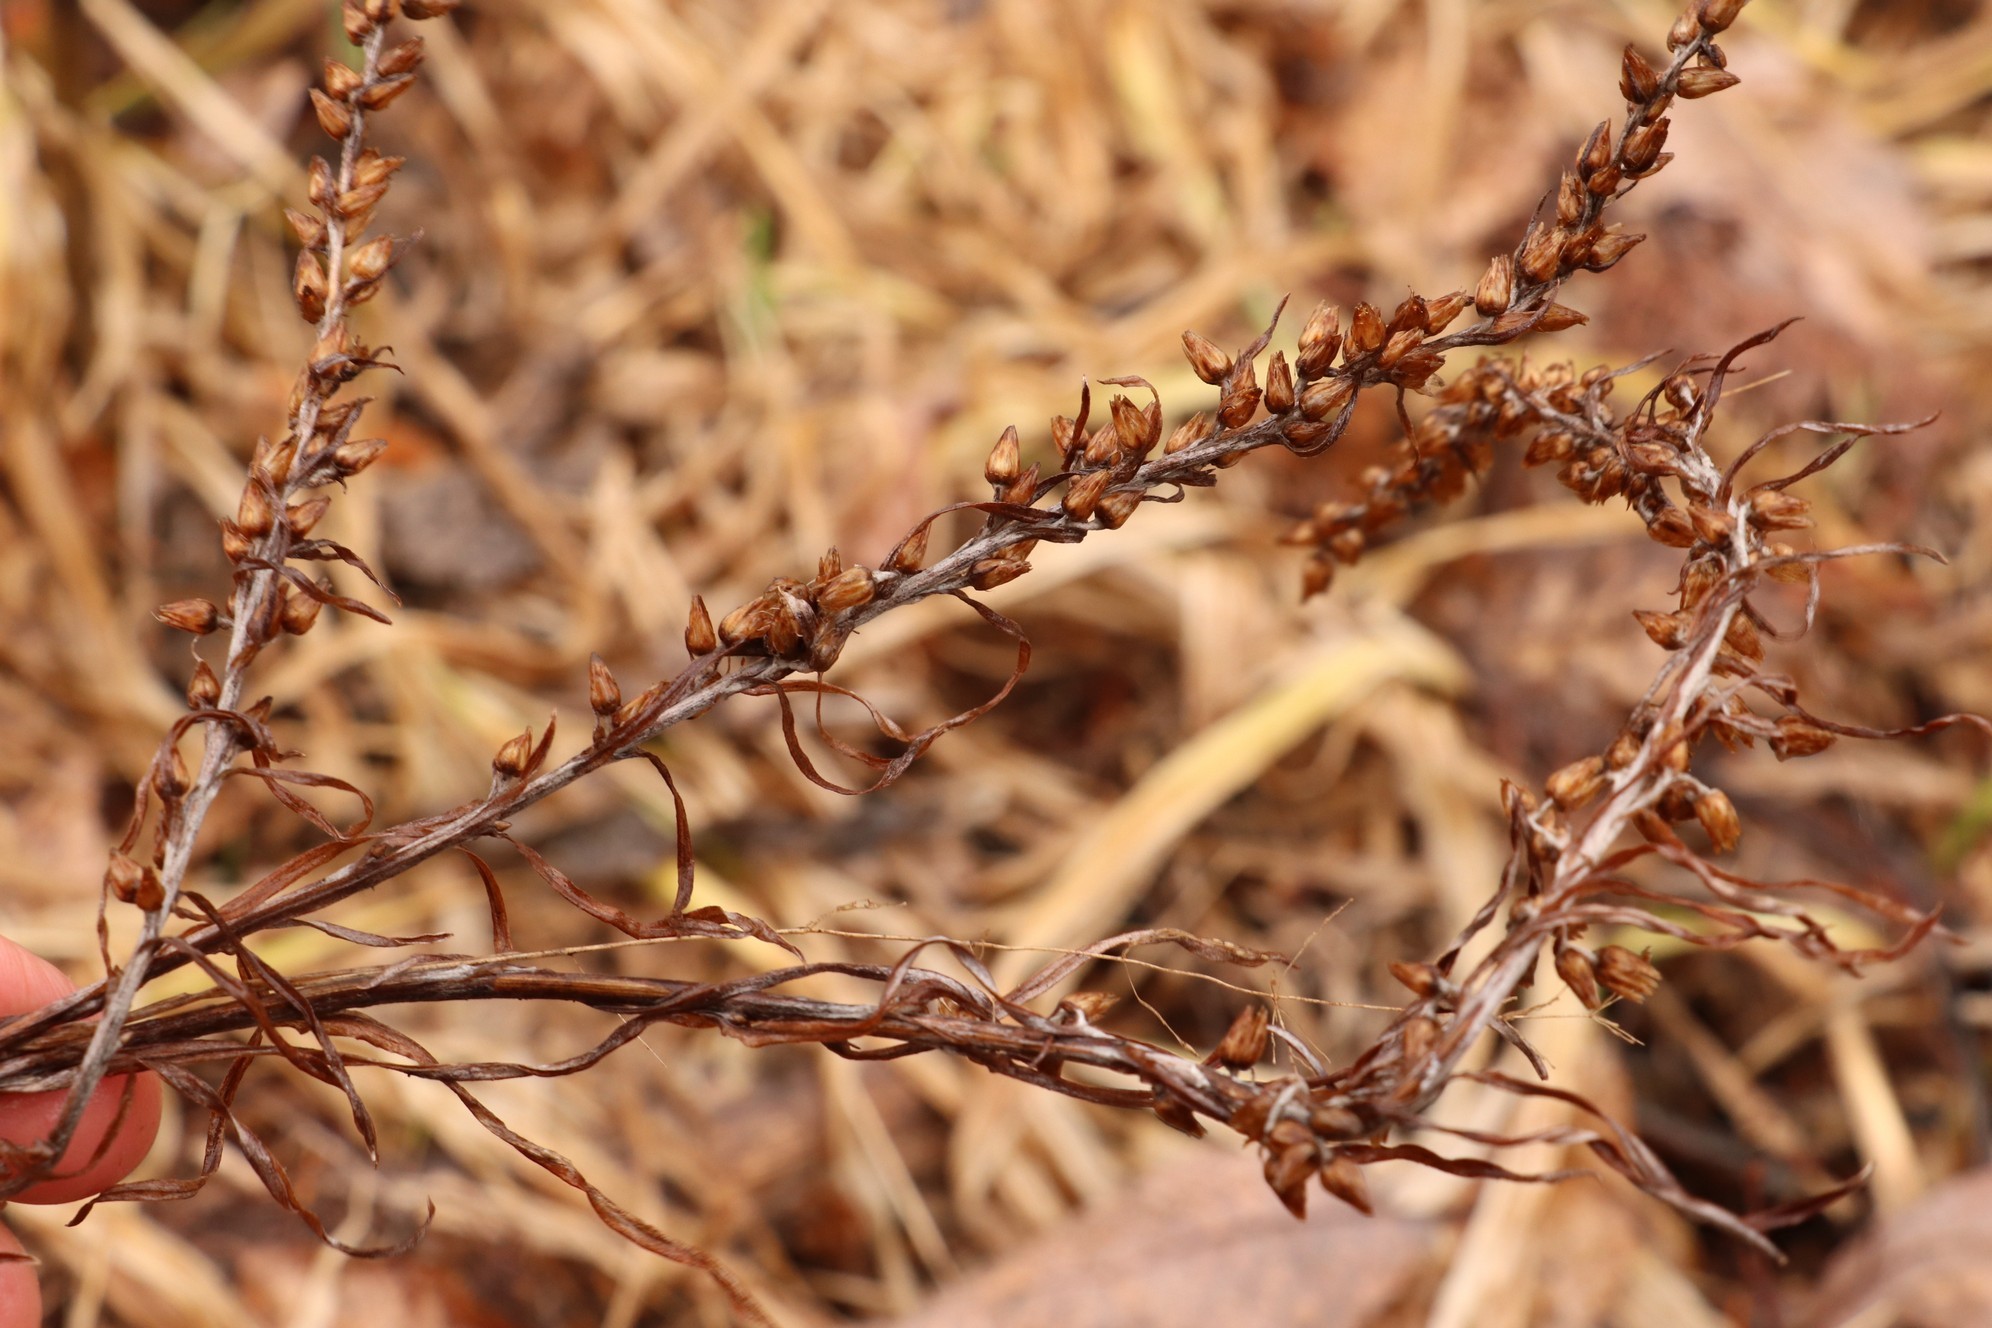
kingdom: Plantae
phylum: Tracheophyta
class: Magnoliopsida
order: Asterales
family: Asteraceae
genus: Omalotheca
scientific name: Omalotheca sylvatica
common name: Heath cudweed
